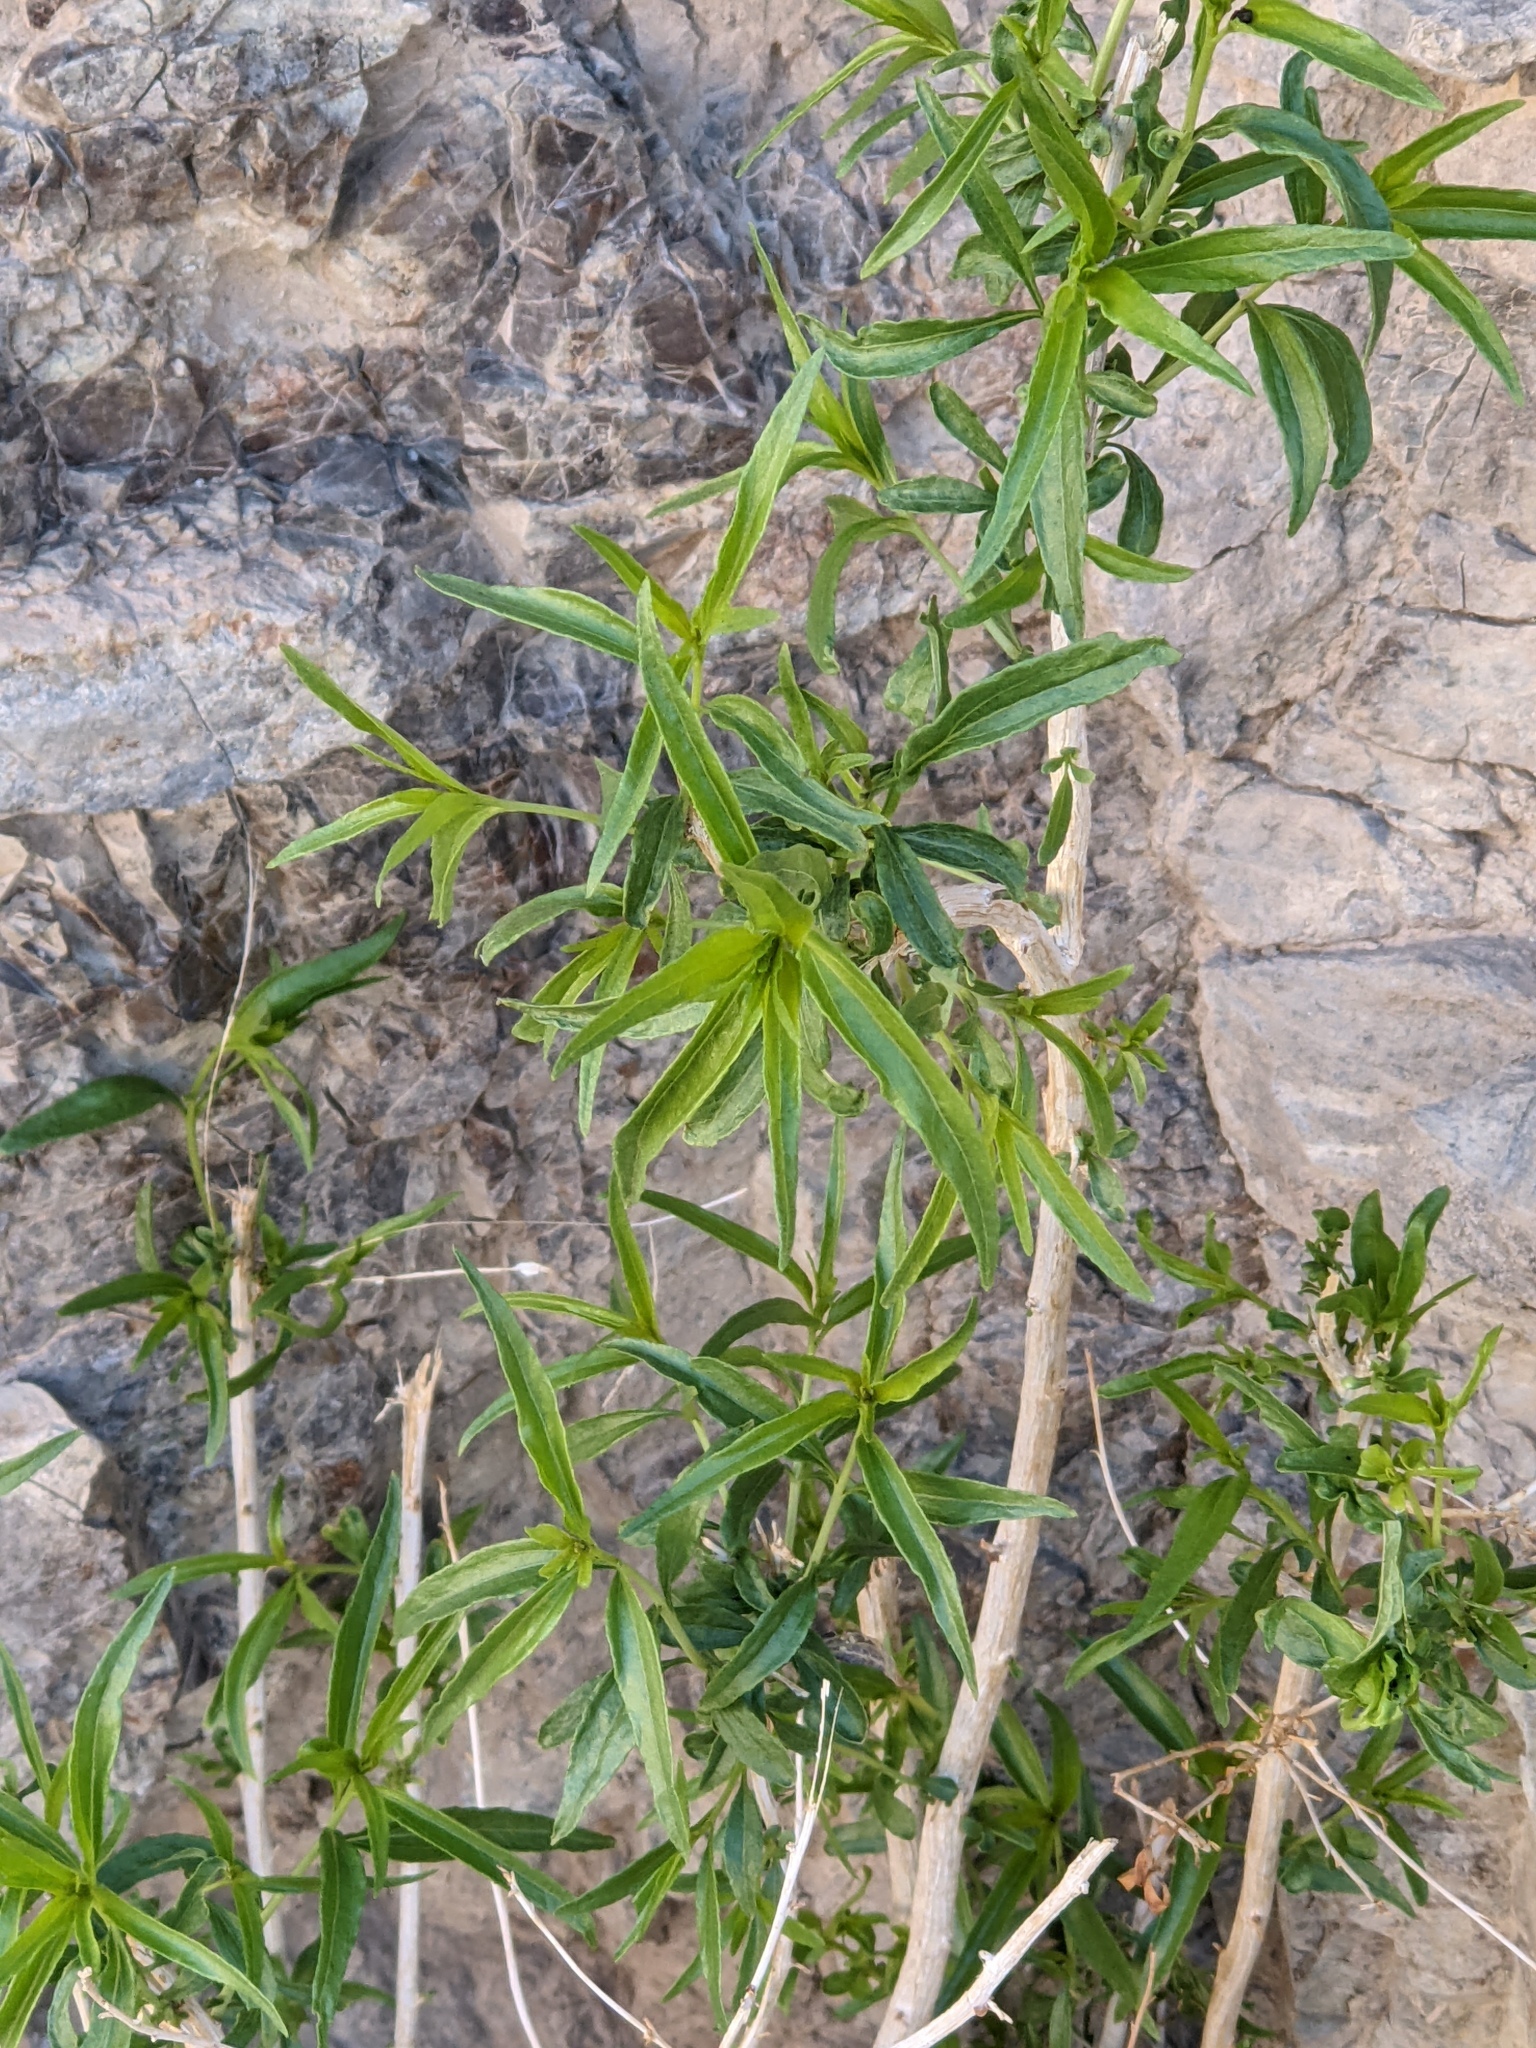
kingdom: Plantae
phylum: Tracheophyta
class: Magnoliopsida
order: Asterales
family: Asteraceae
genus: Brickellia
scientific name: Brickellia longifolia
